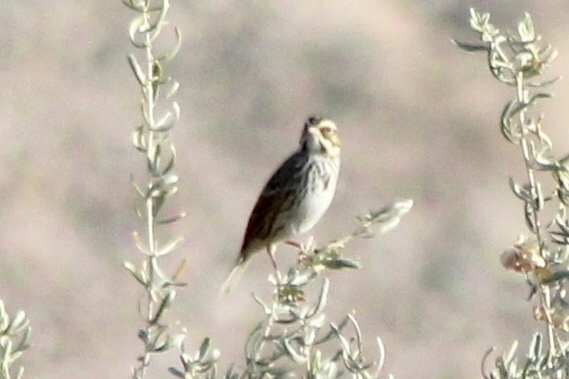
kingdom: Animalia
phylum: Chordata
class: Aves
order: Passeriformes
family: Passerellidae
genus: Passerculus
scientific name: Passerculus sandwichensis
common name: Savannah sparrow
